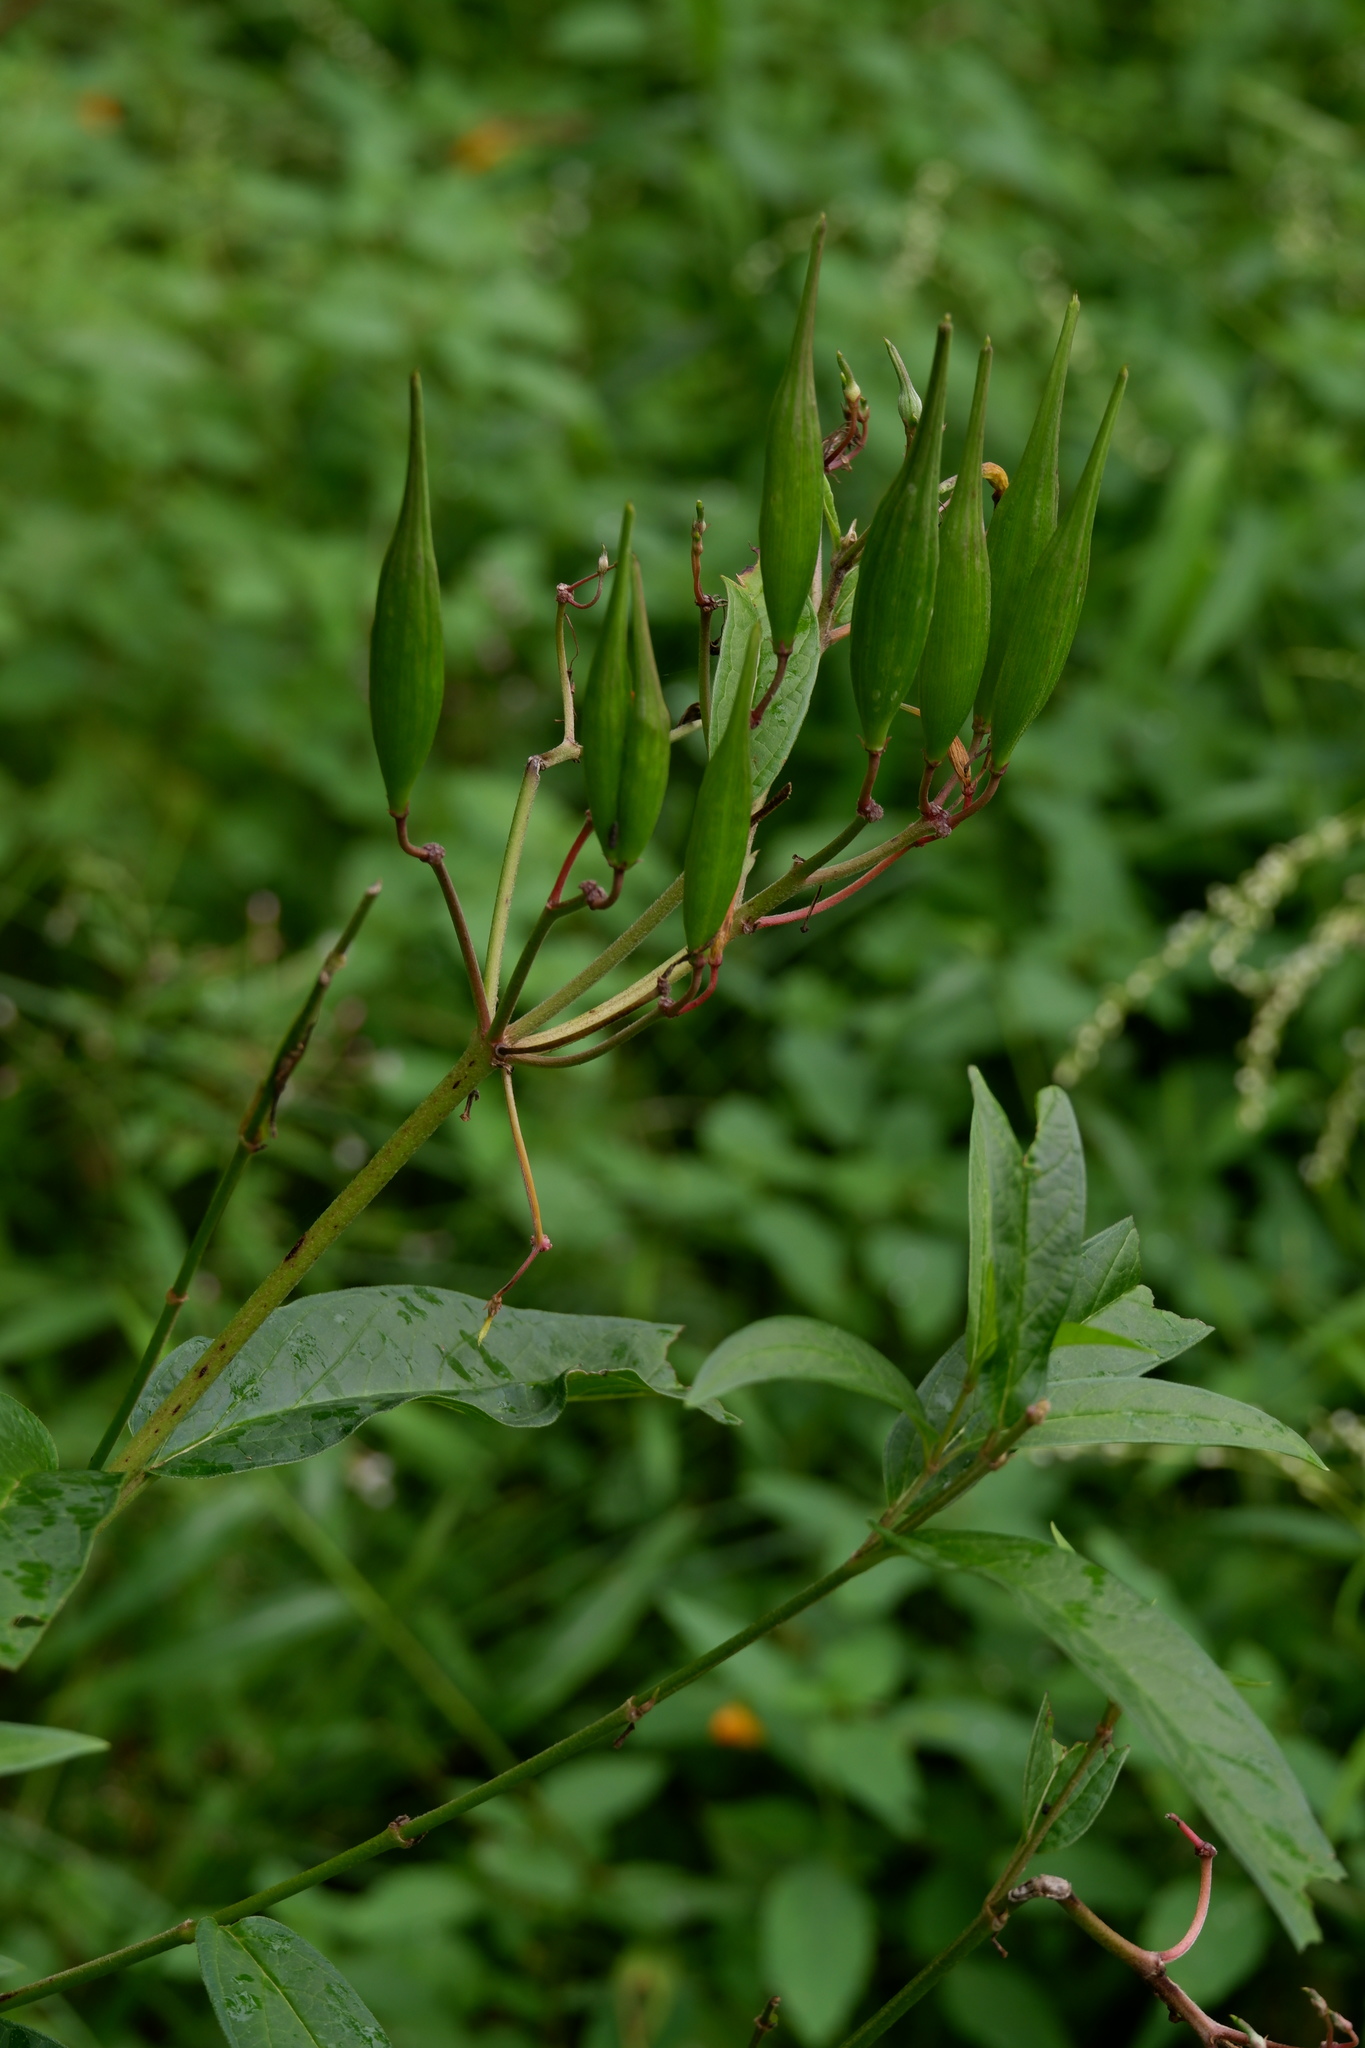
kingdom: Plantae
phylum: Tracheophyta
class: Magnoliopsida
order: Gentianales
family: Apocynaceae
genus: Asclepias
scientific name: Asclepias incarnata
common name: Swamp milkweed
